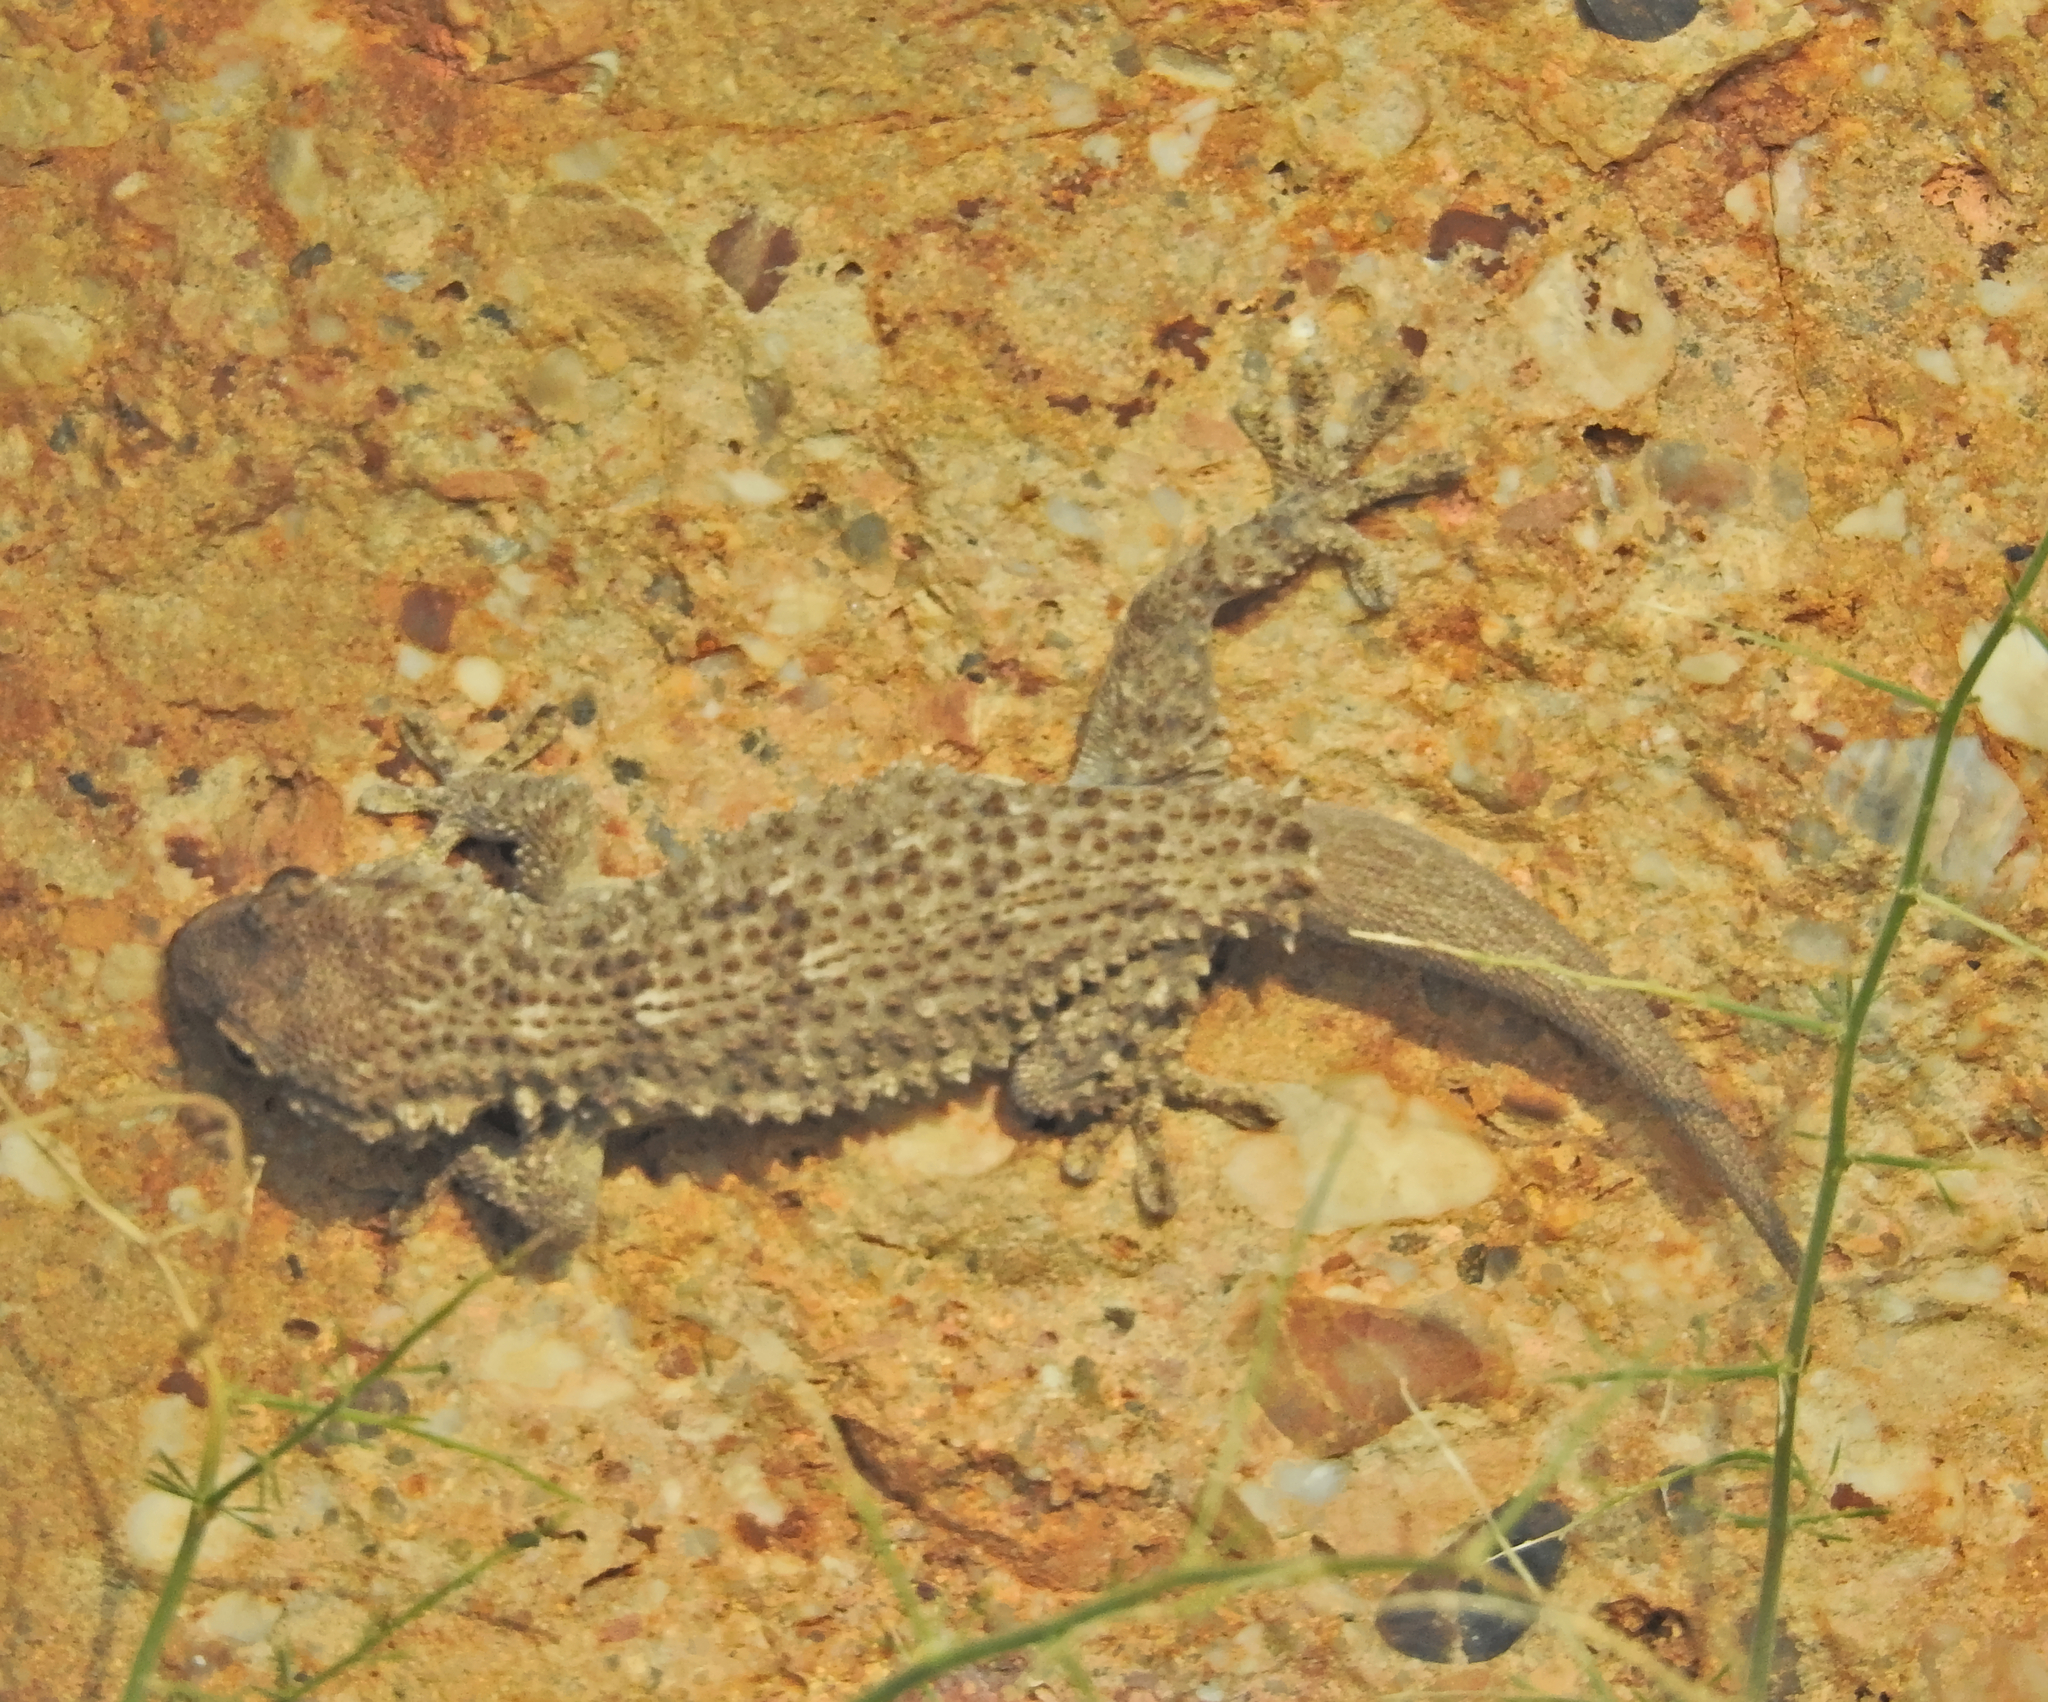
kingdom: Animalia
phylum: Chordata
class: Squamata
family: Phyllodactylidae
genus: Tarentola
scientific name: Tarentola mauritanica
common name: Moorish gecko
